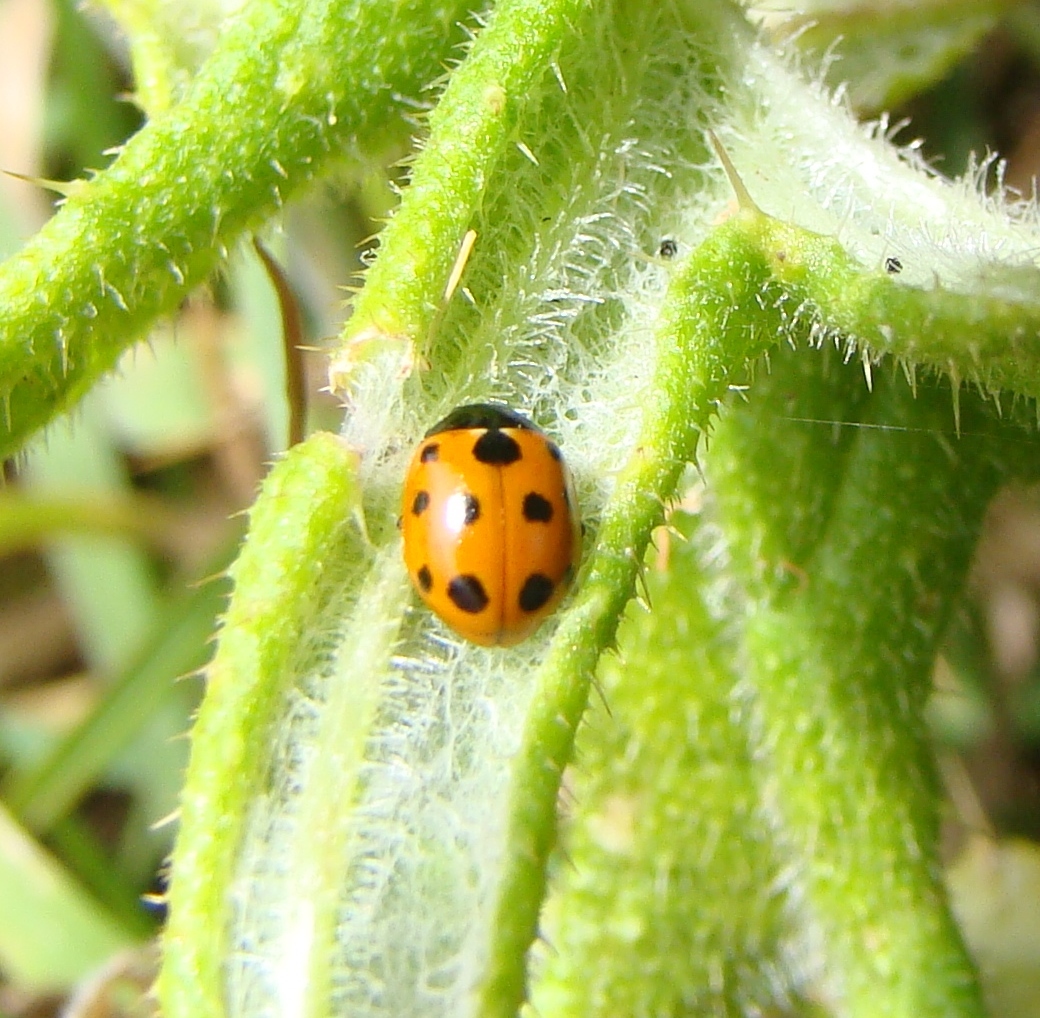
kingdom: Animalia
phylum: Arthropoda
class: Insecta
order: Coleoptera
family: Coccinellidae
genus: Coccinella
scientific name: Coccinella undecimpunctata
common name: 11-spot ladybird
